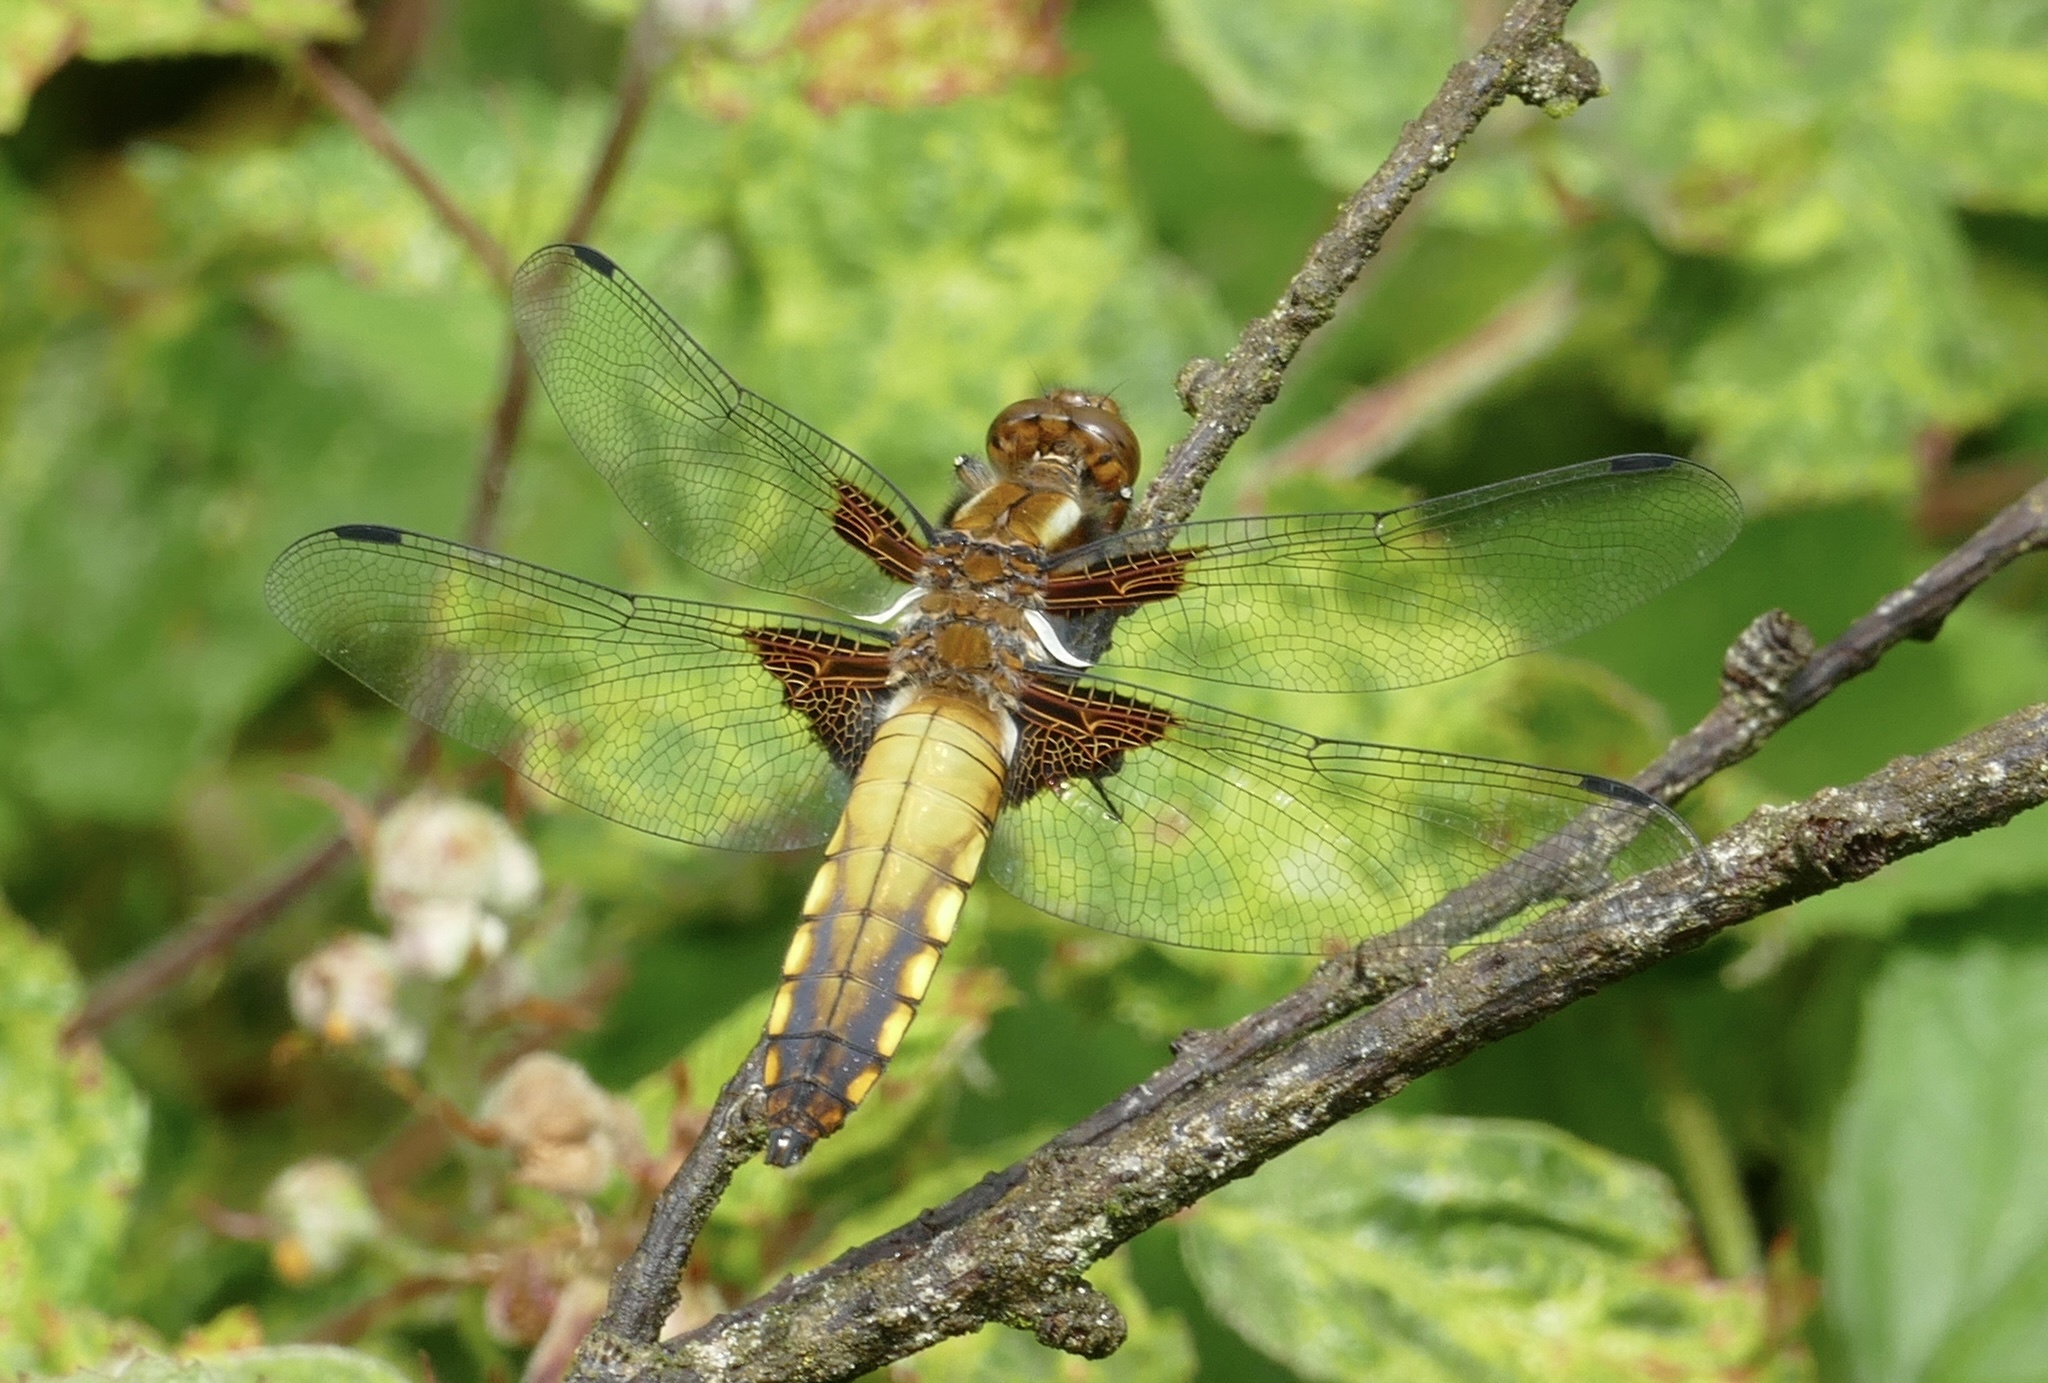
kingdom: Animalia
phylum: Arthropoda
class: Insecta
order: Odonata
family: Libellulidae
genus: Libellula
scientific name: Libellula depressa
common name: Broad-bodied chaser
